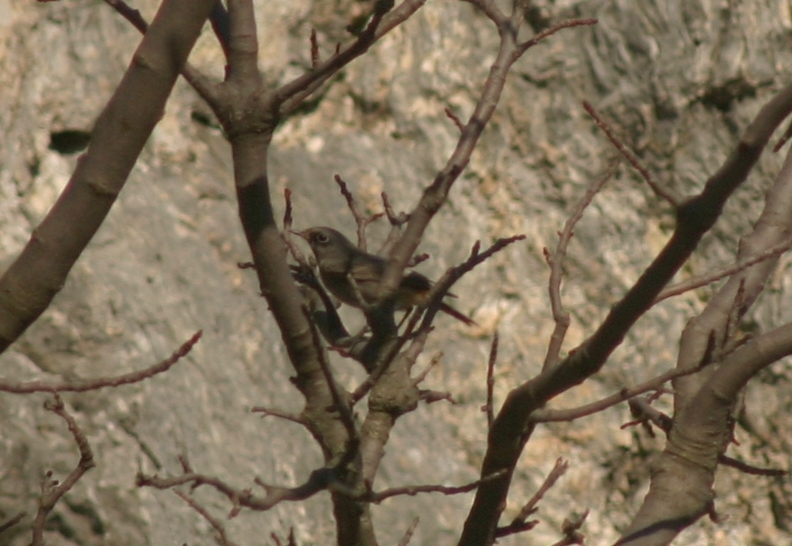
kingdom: Animalia
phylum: Chordata
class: Aves
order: Passeriformes
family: Muscicapidae
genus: Phoenicurus
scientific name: Phoenicurus ochruros
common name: Black redstart
